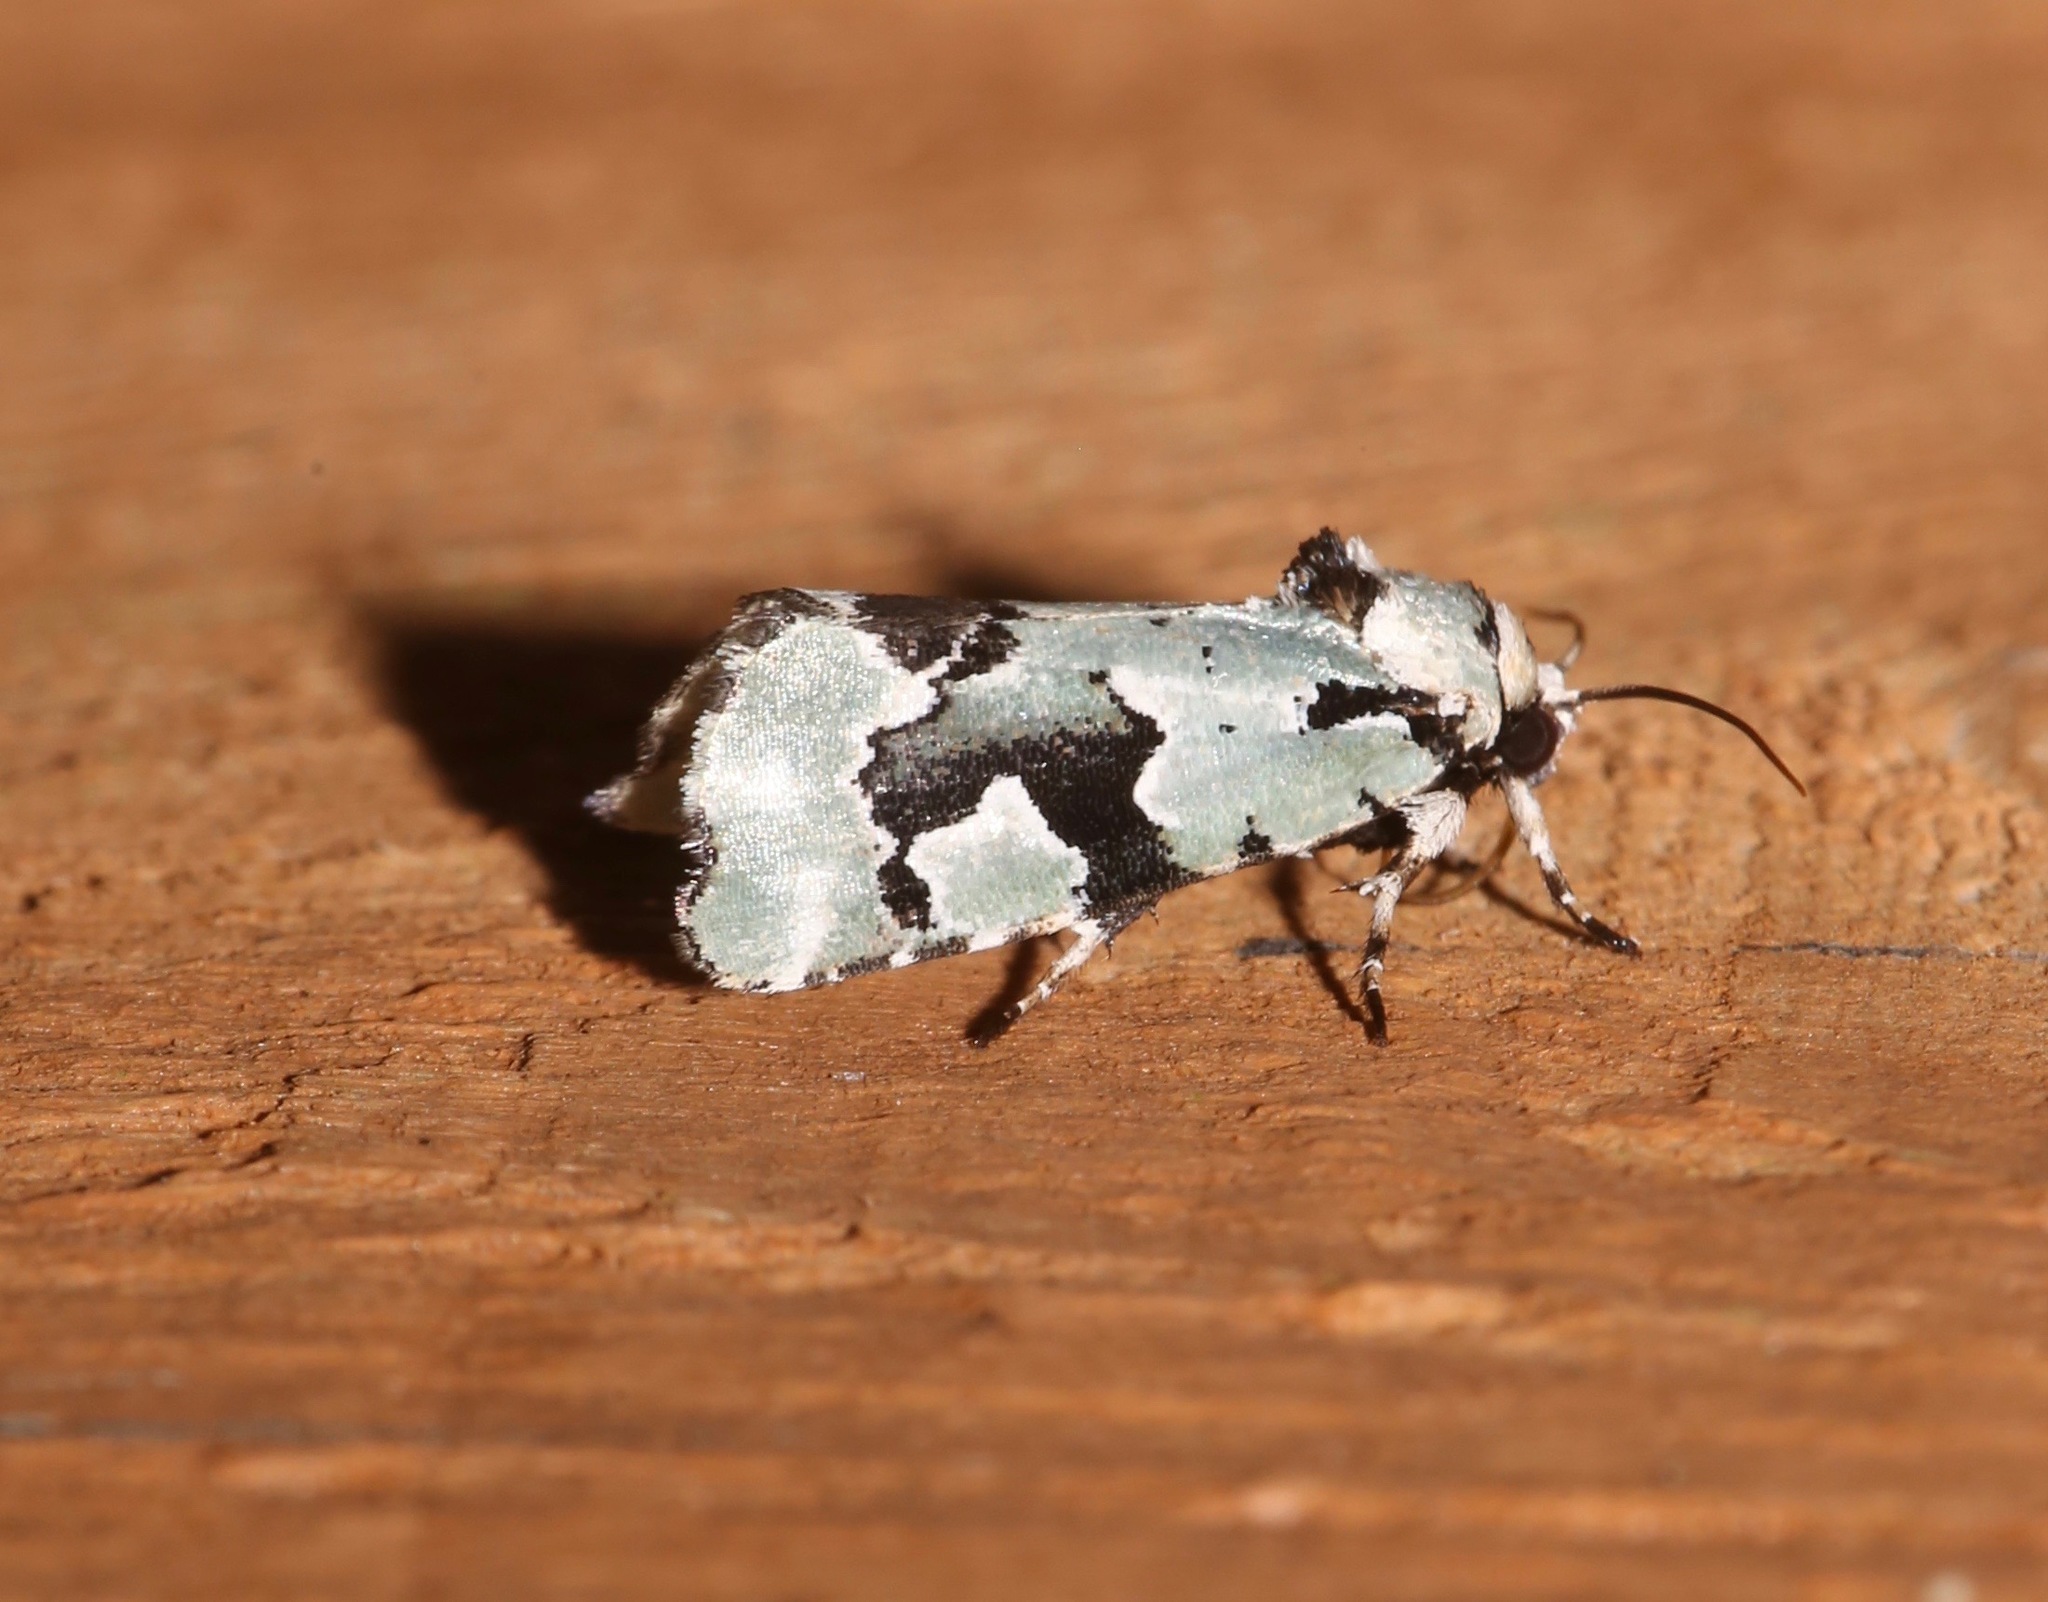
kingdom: Animalia
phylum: Arthropoda
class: Insecta
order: Lepidoptera
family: Noctuidae
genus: Emarginea
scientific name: Emarginea percara
